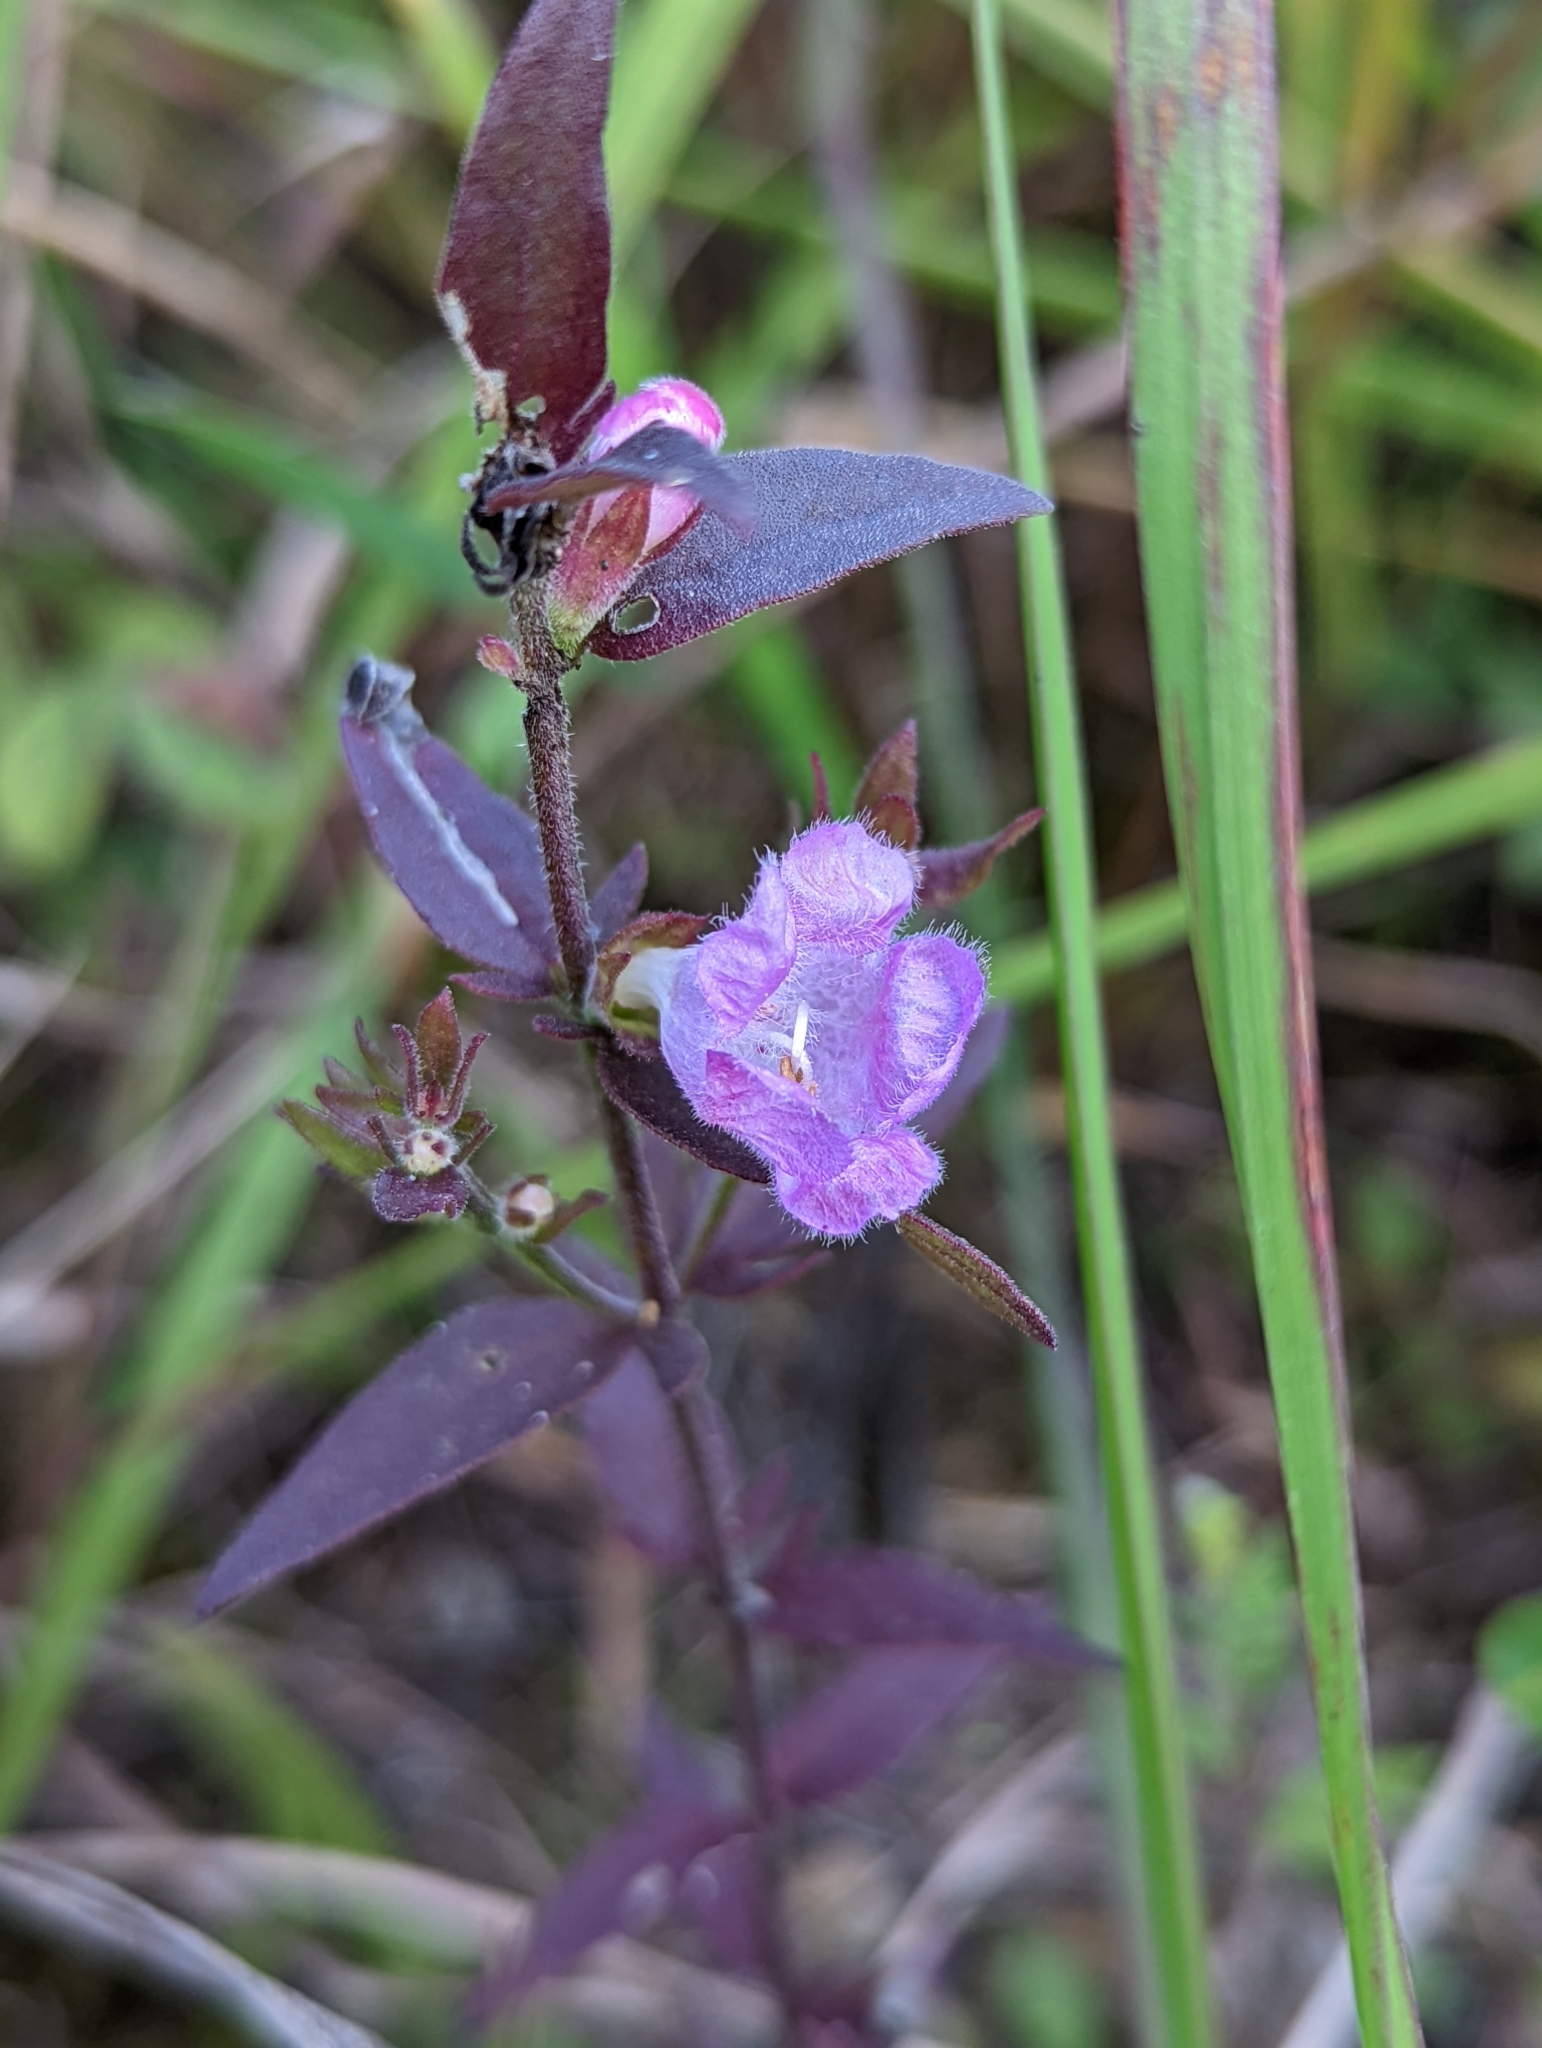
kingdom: Plantae
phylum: Tracheophyta
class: Magnoliopsida
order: Lamiales
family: Orobanchaceae
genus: Agalinis
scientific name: Agalinis auriculata
